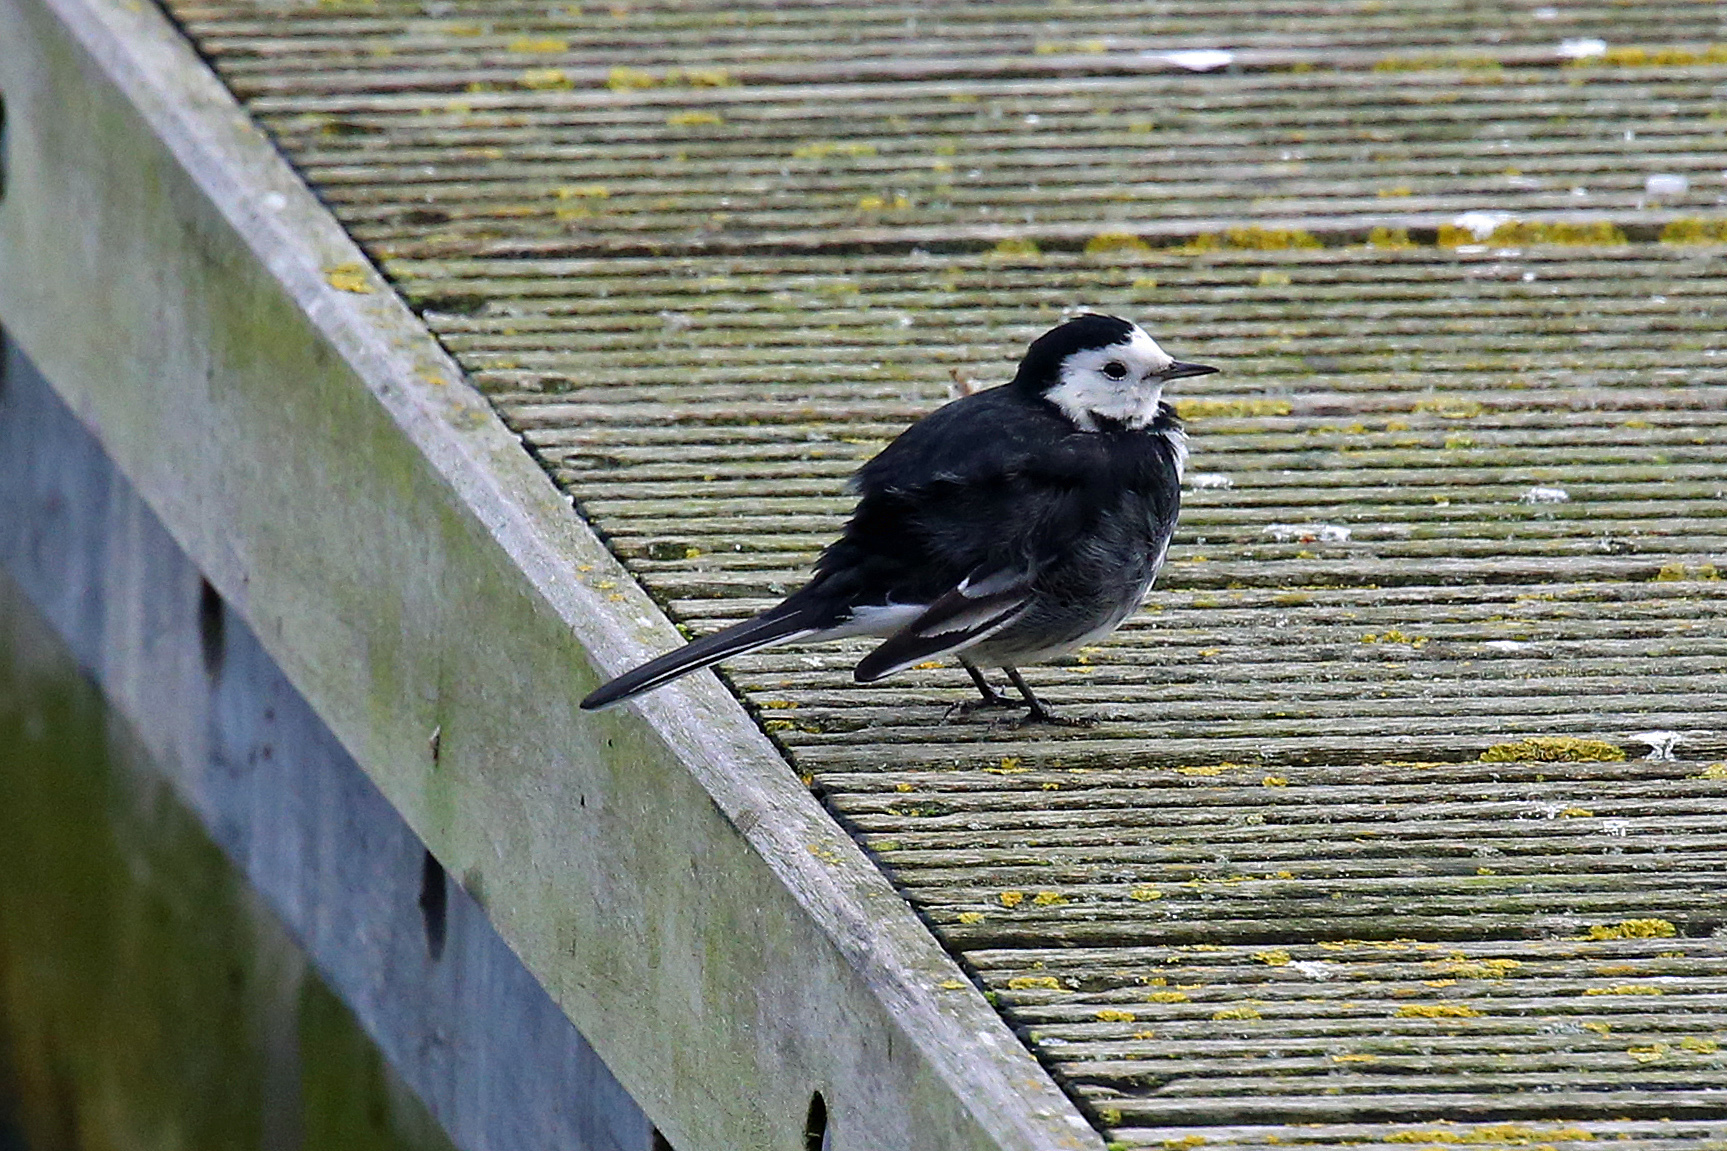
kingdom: Animalia
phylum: Chordata
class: Aves
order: Passeriformes
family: Motacillidae
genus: Motacilla
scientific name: Motacilla alba
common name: White wagtail
